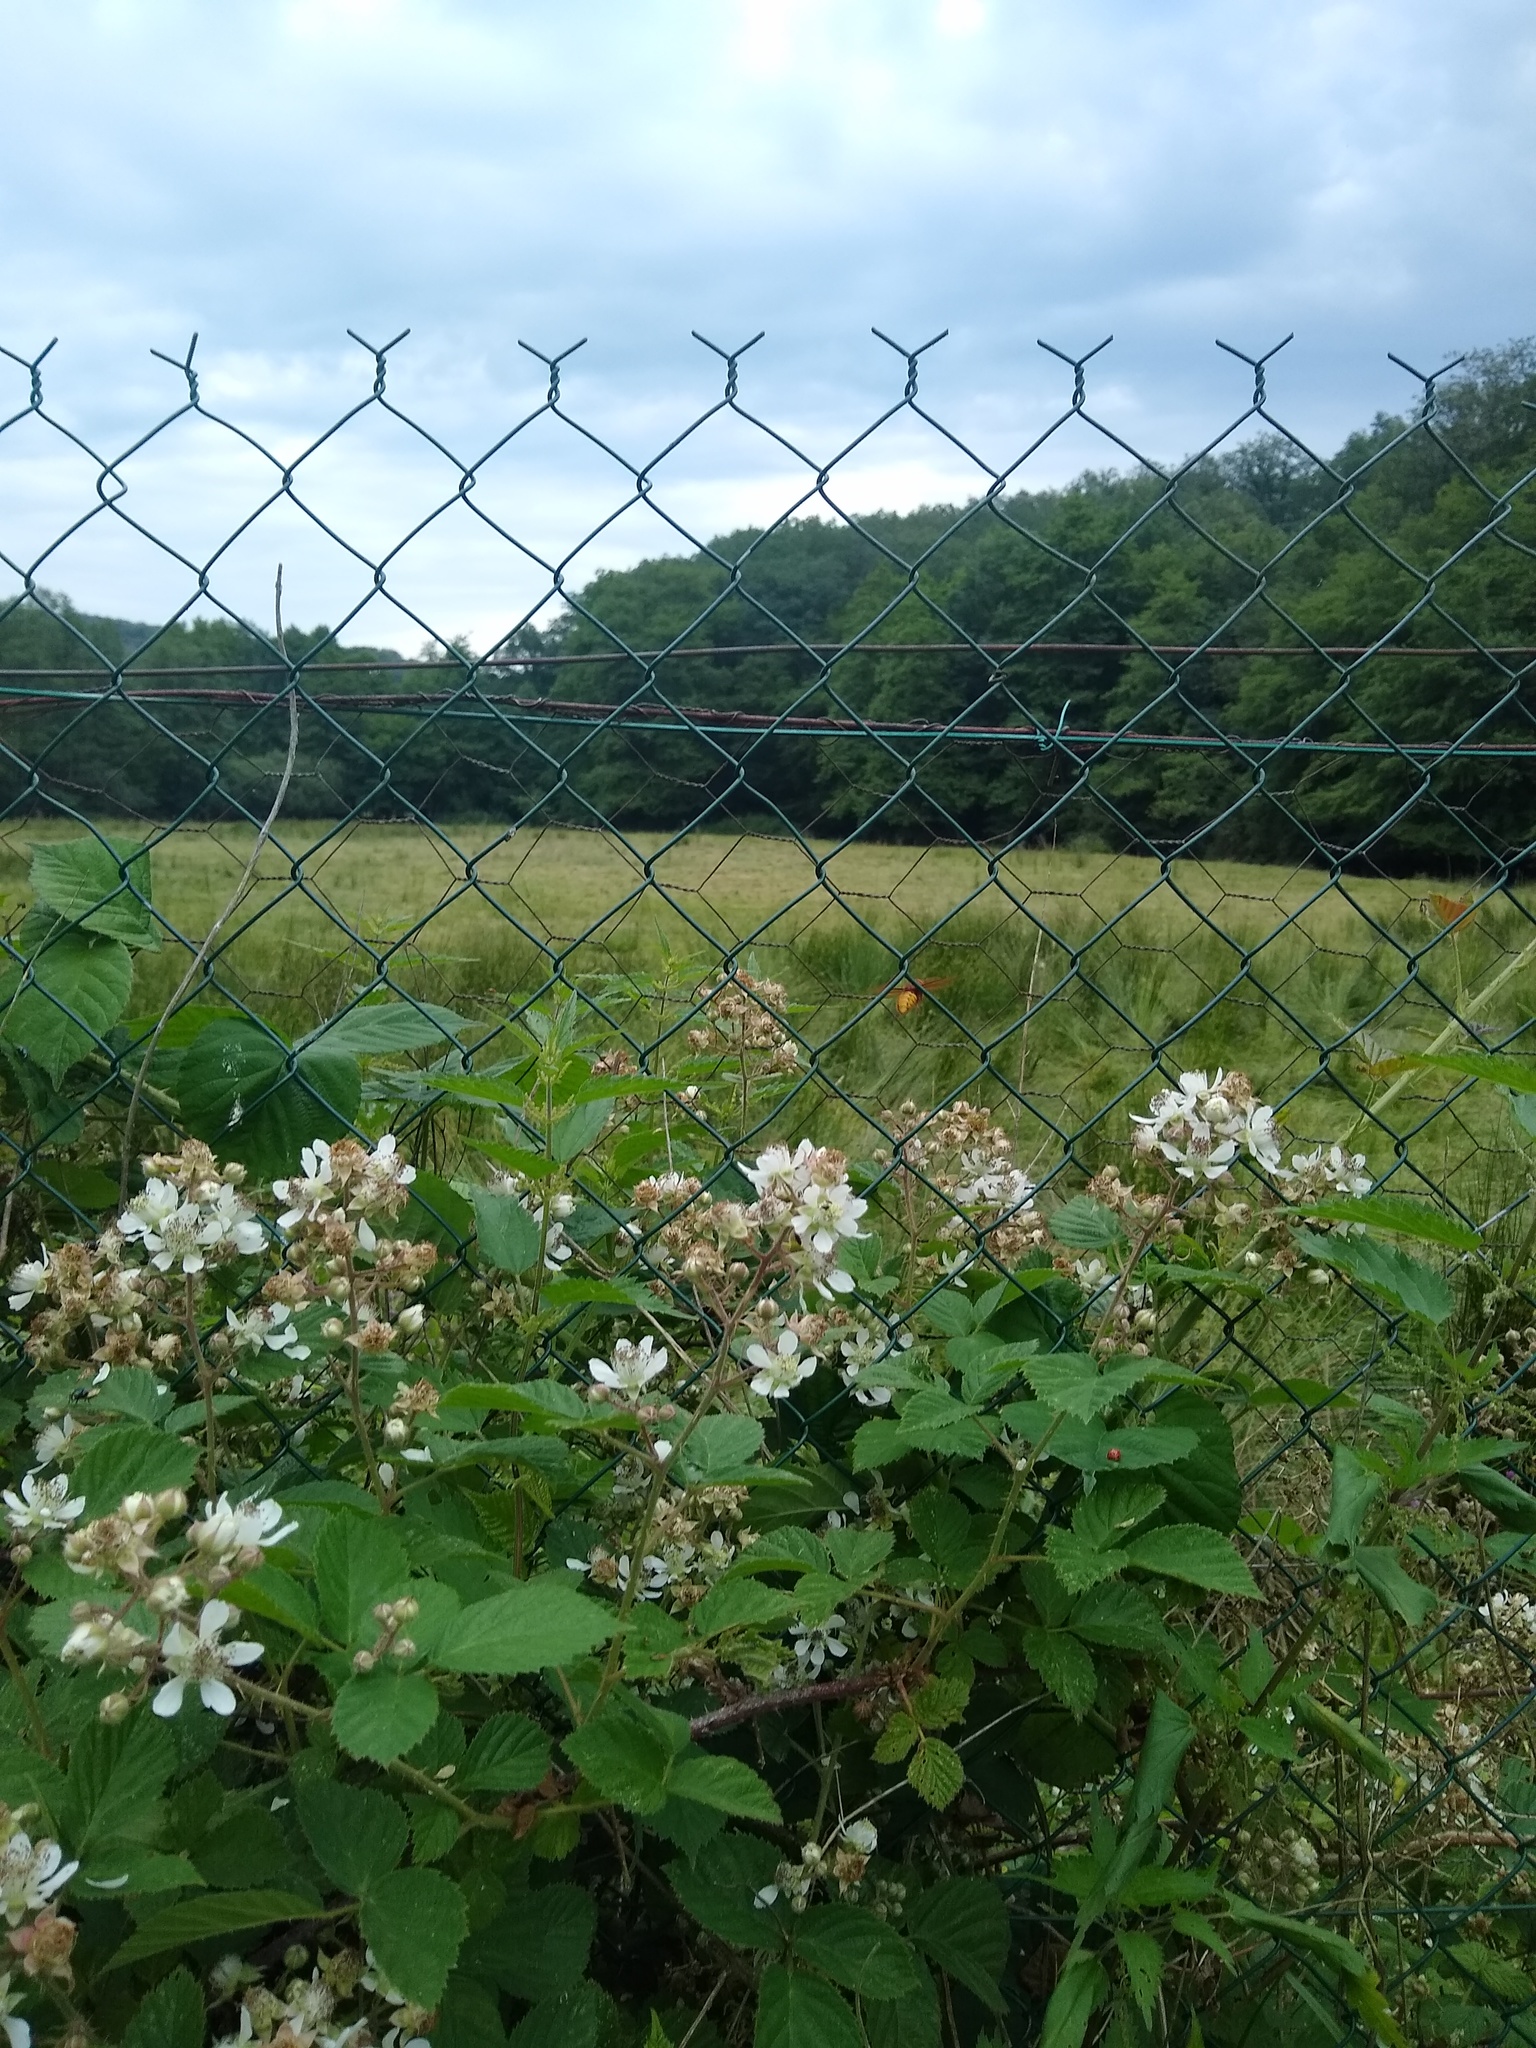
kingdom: Animalia
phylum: Arthropoda
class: Insecta
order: Hymenoptera
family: Vespidae
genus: Vespa
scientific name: Vespa crabro
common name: Hornet
